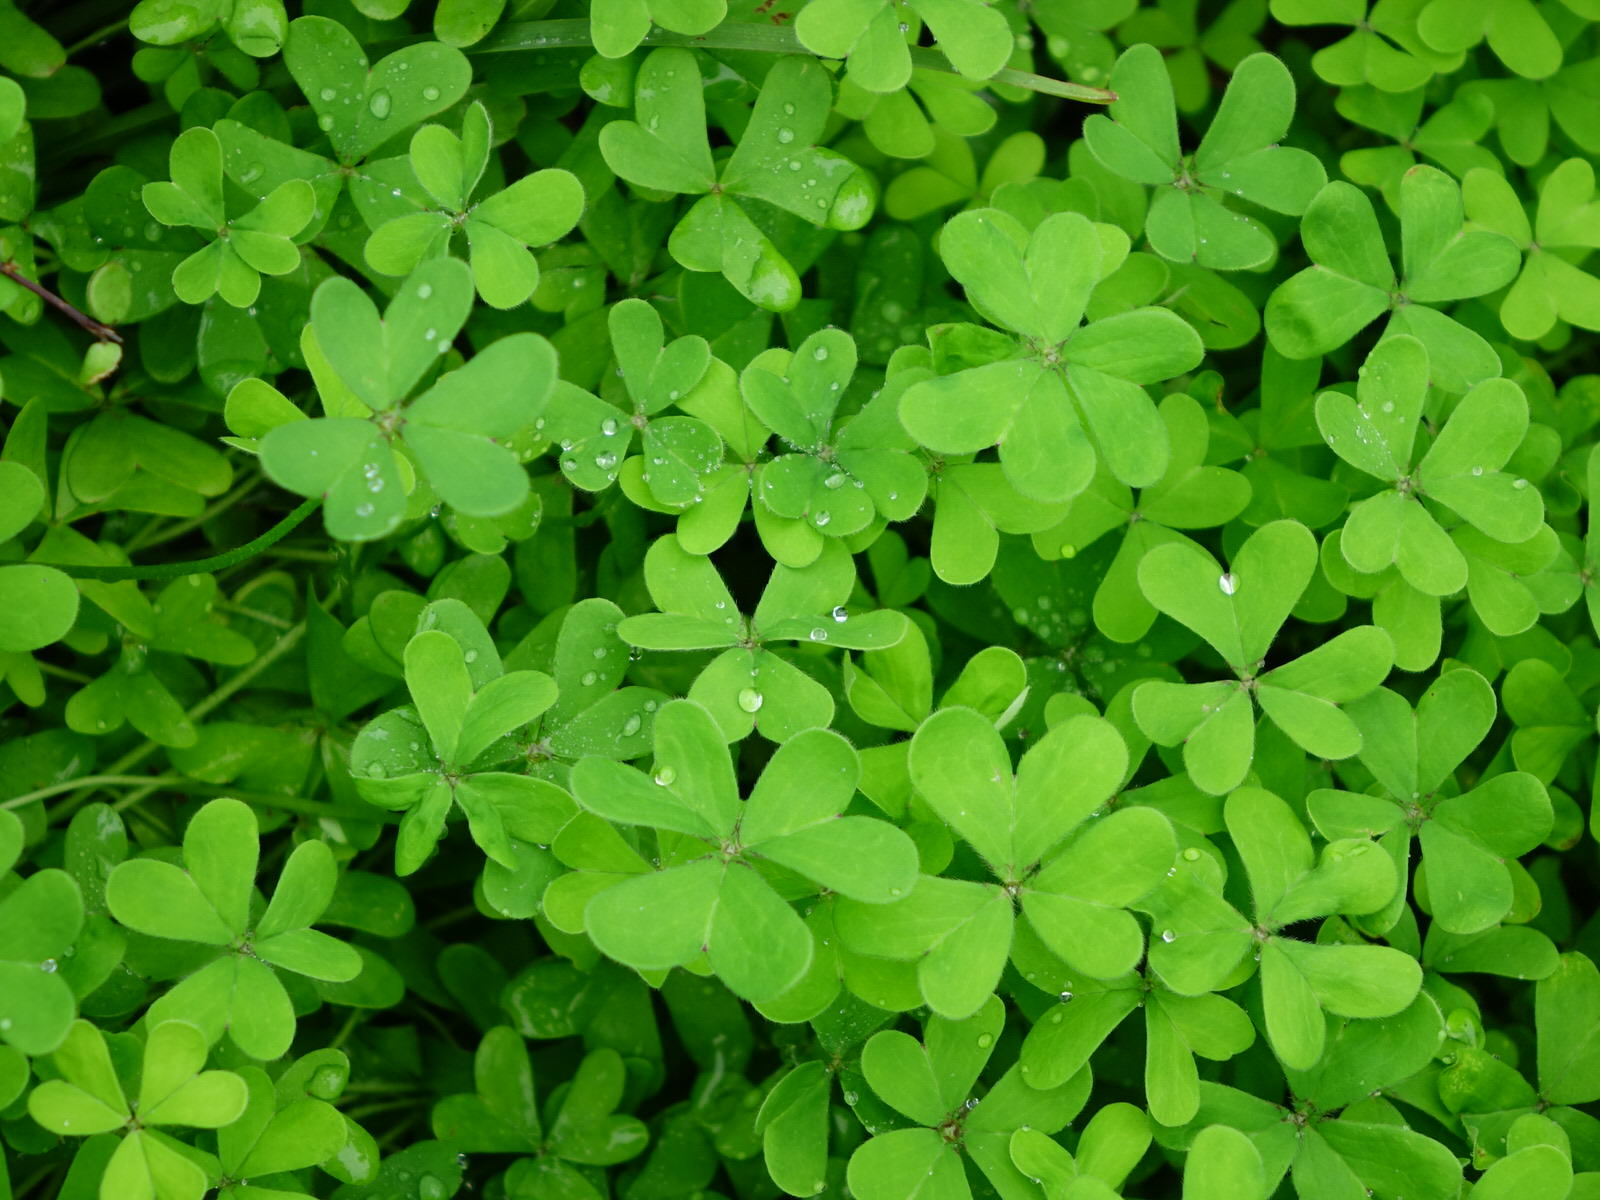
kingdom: Plantae
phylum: Tracheophyta
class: Magnoliopsida
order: Oxalidales
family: Oxalidaceae
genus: Oxalis
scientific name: Oxalis pes-caprae
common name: Bermuda-buttercup
